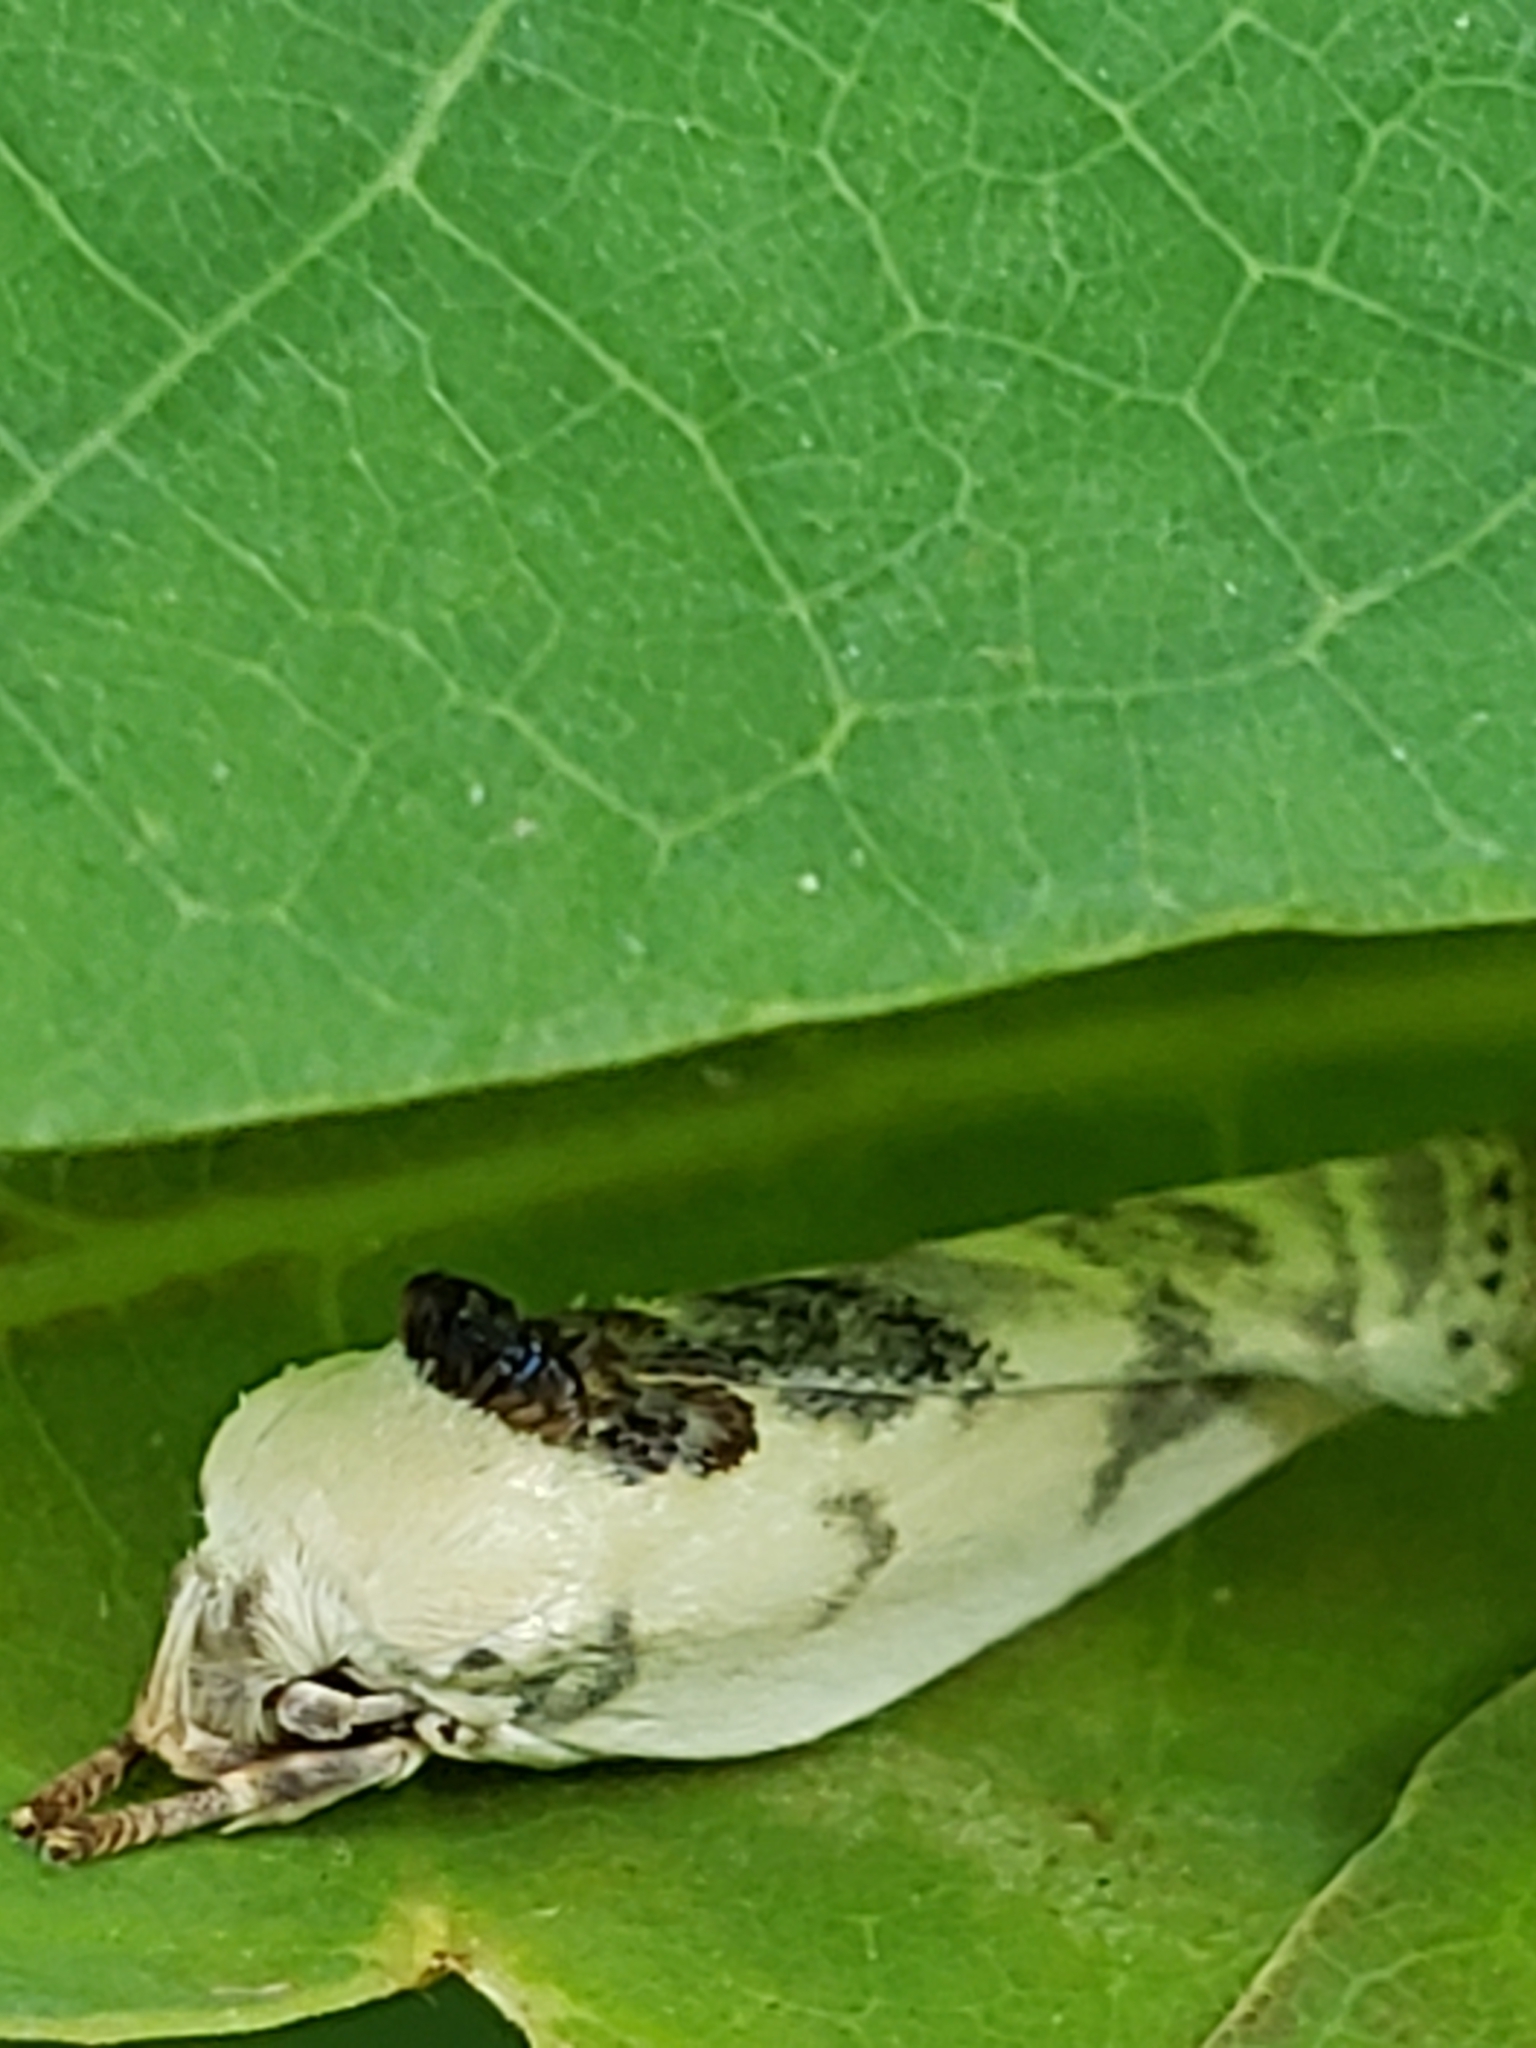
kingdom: Animalia
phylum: Arthropoda
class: Insecta
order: Lepidoptera
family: Depressariidae
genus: Antaeotricha
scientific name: Antaeotricha schlaegeri
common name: Schlaeger's fruitworm moth
